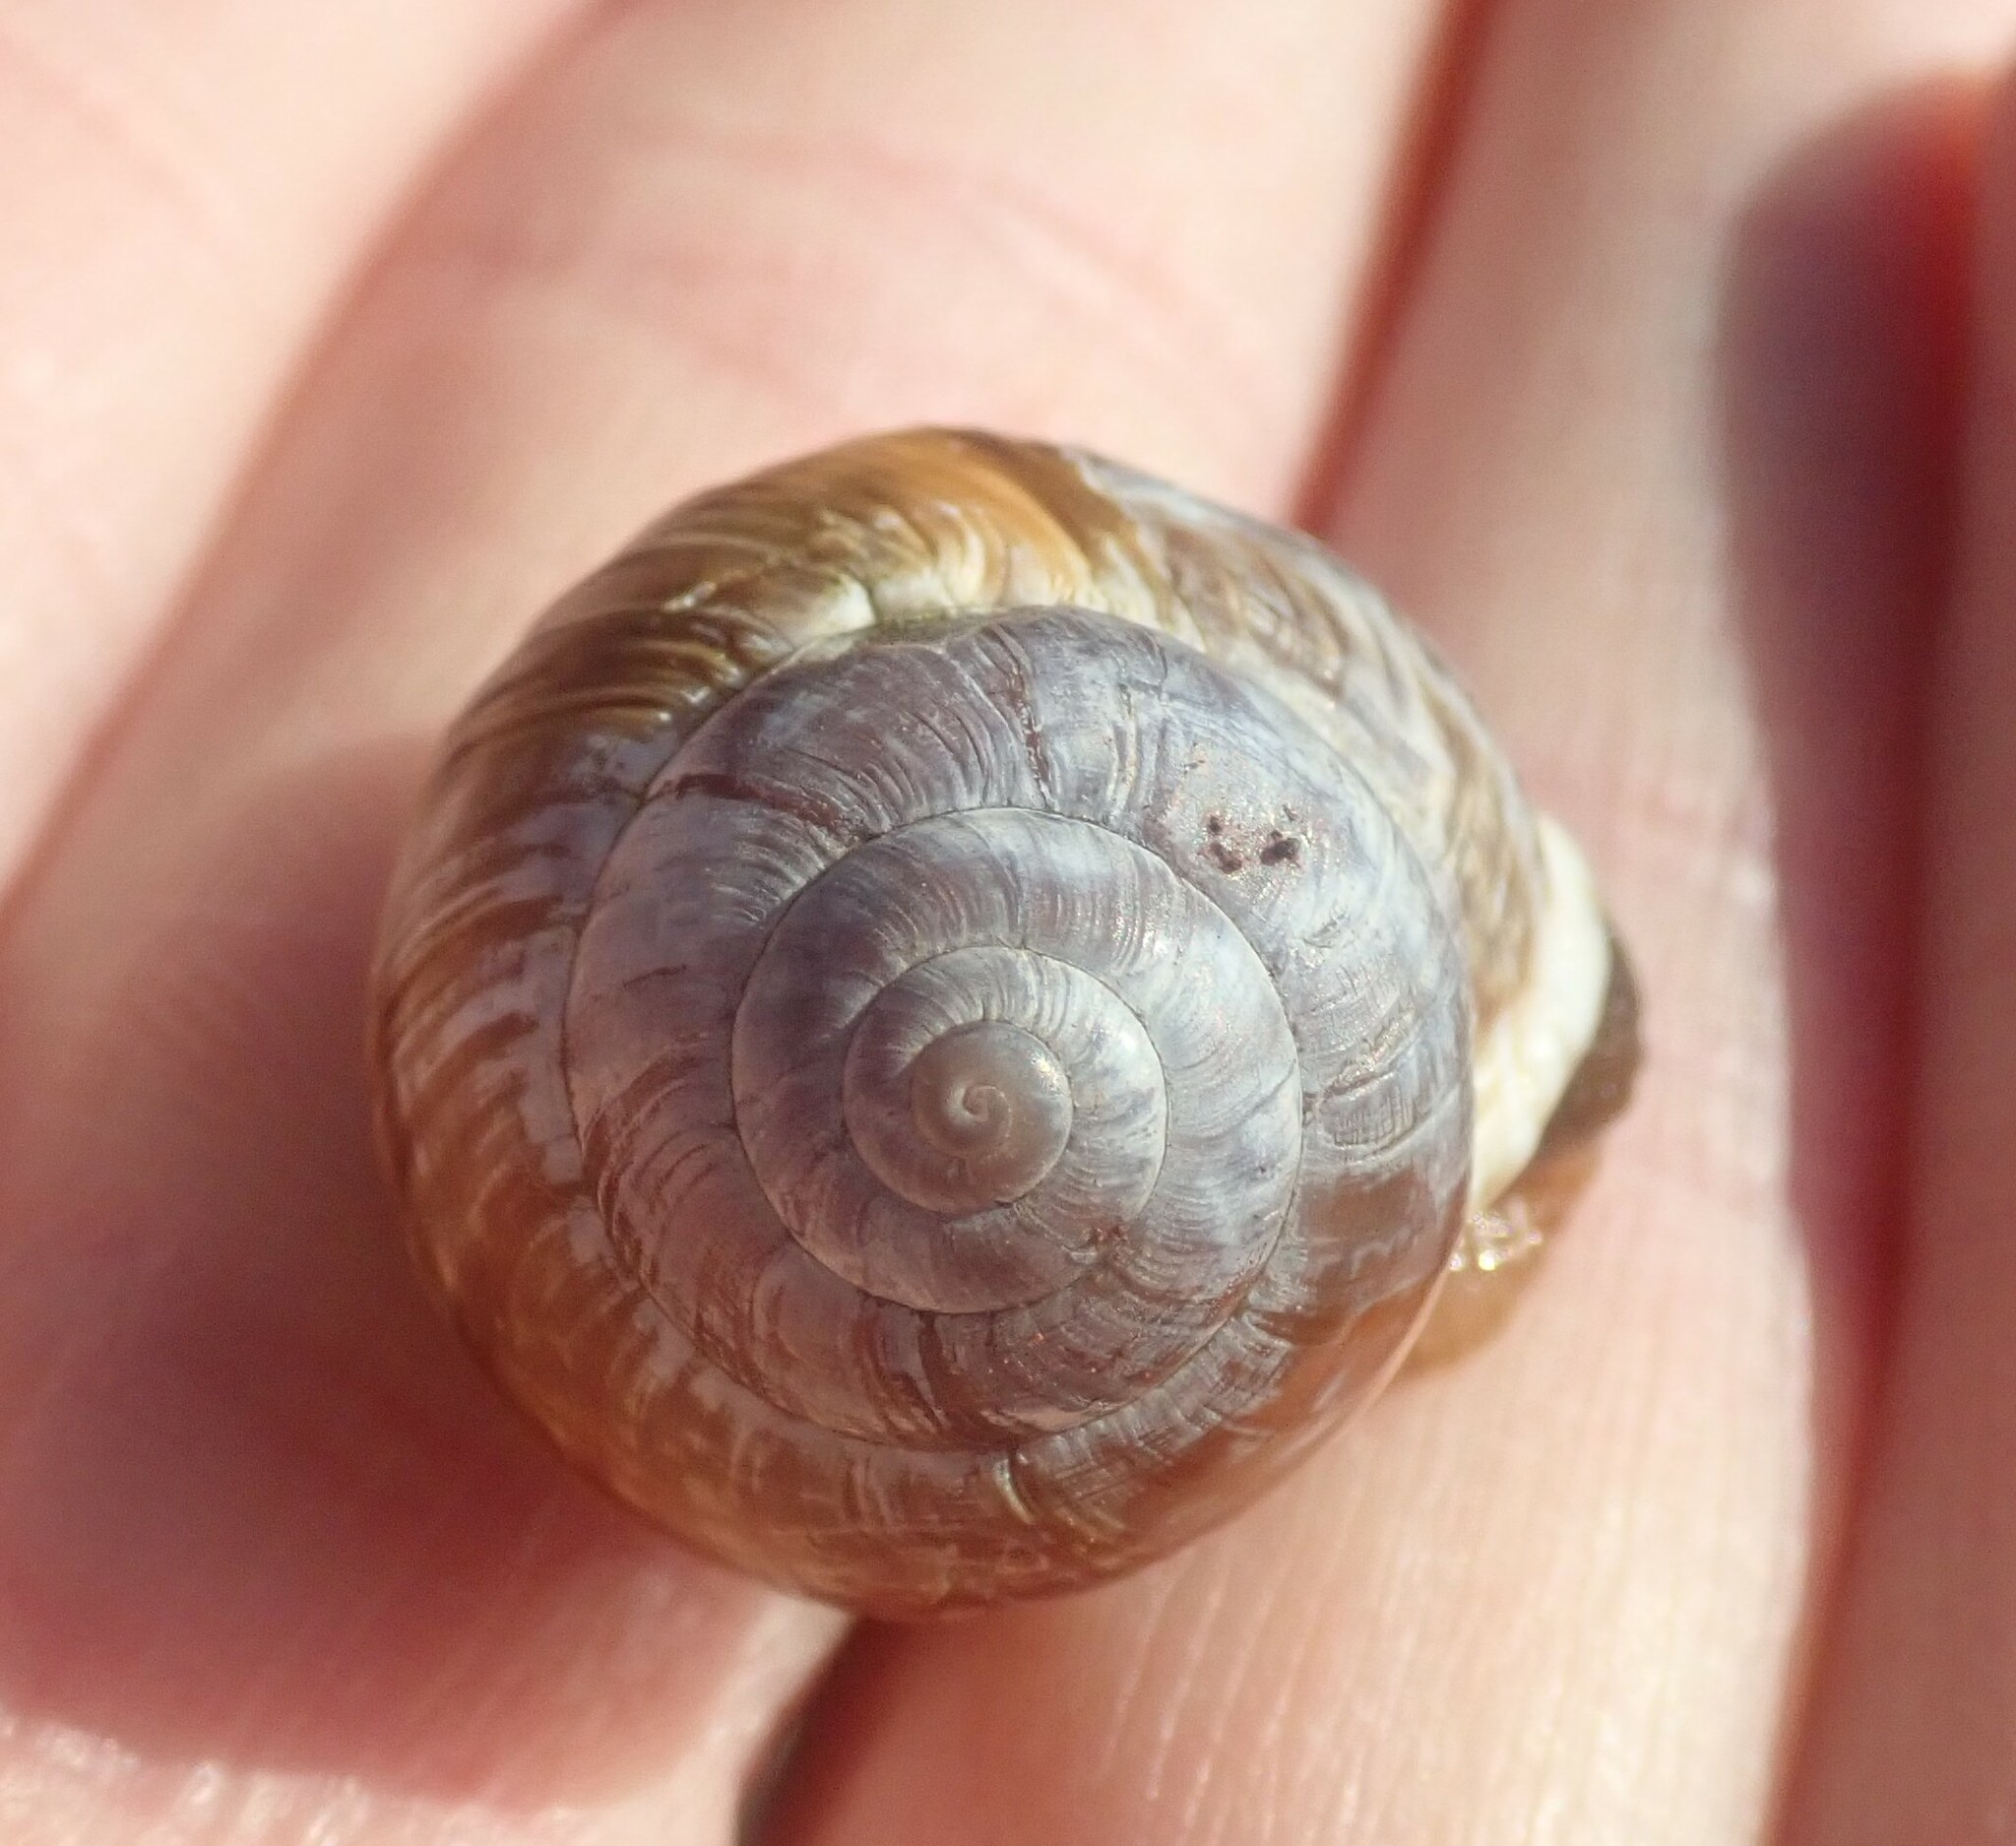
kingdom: Animalia
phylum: Mollusca
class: Gastropoda
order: Stylommatophora
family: Helicidae
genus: Arianta
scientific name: Arianta arbustorum
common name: Copse snail
